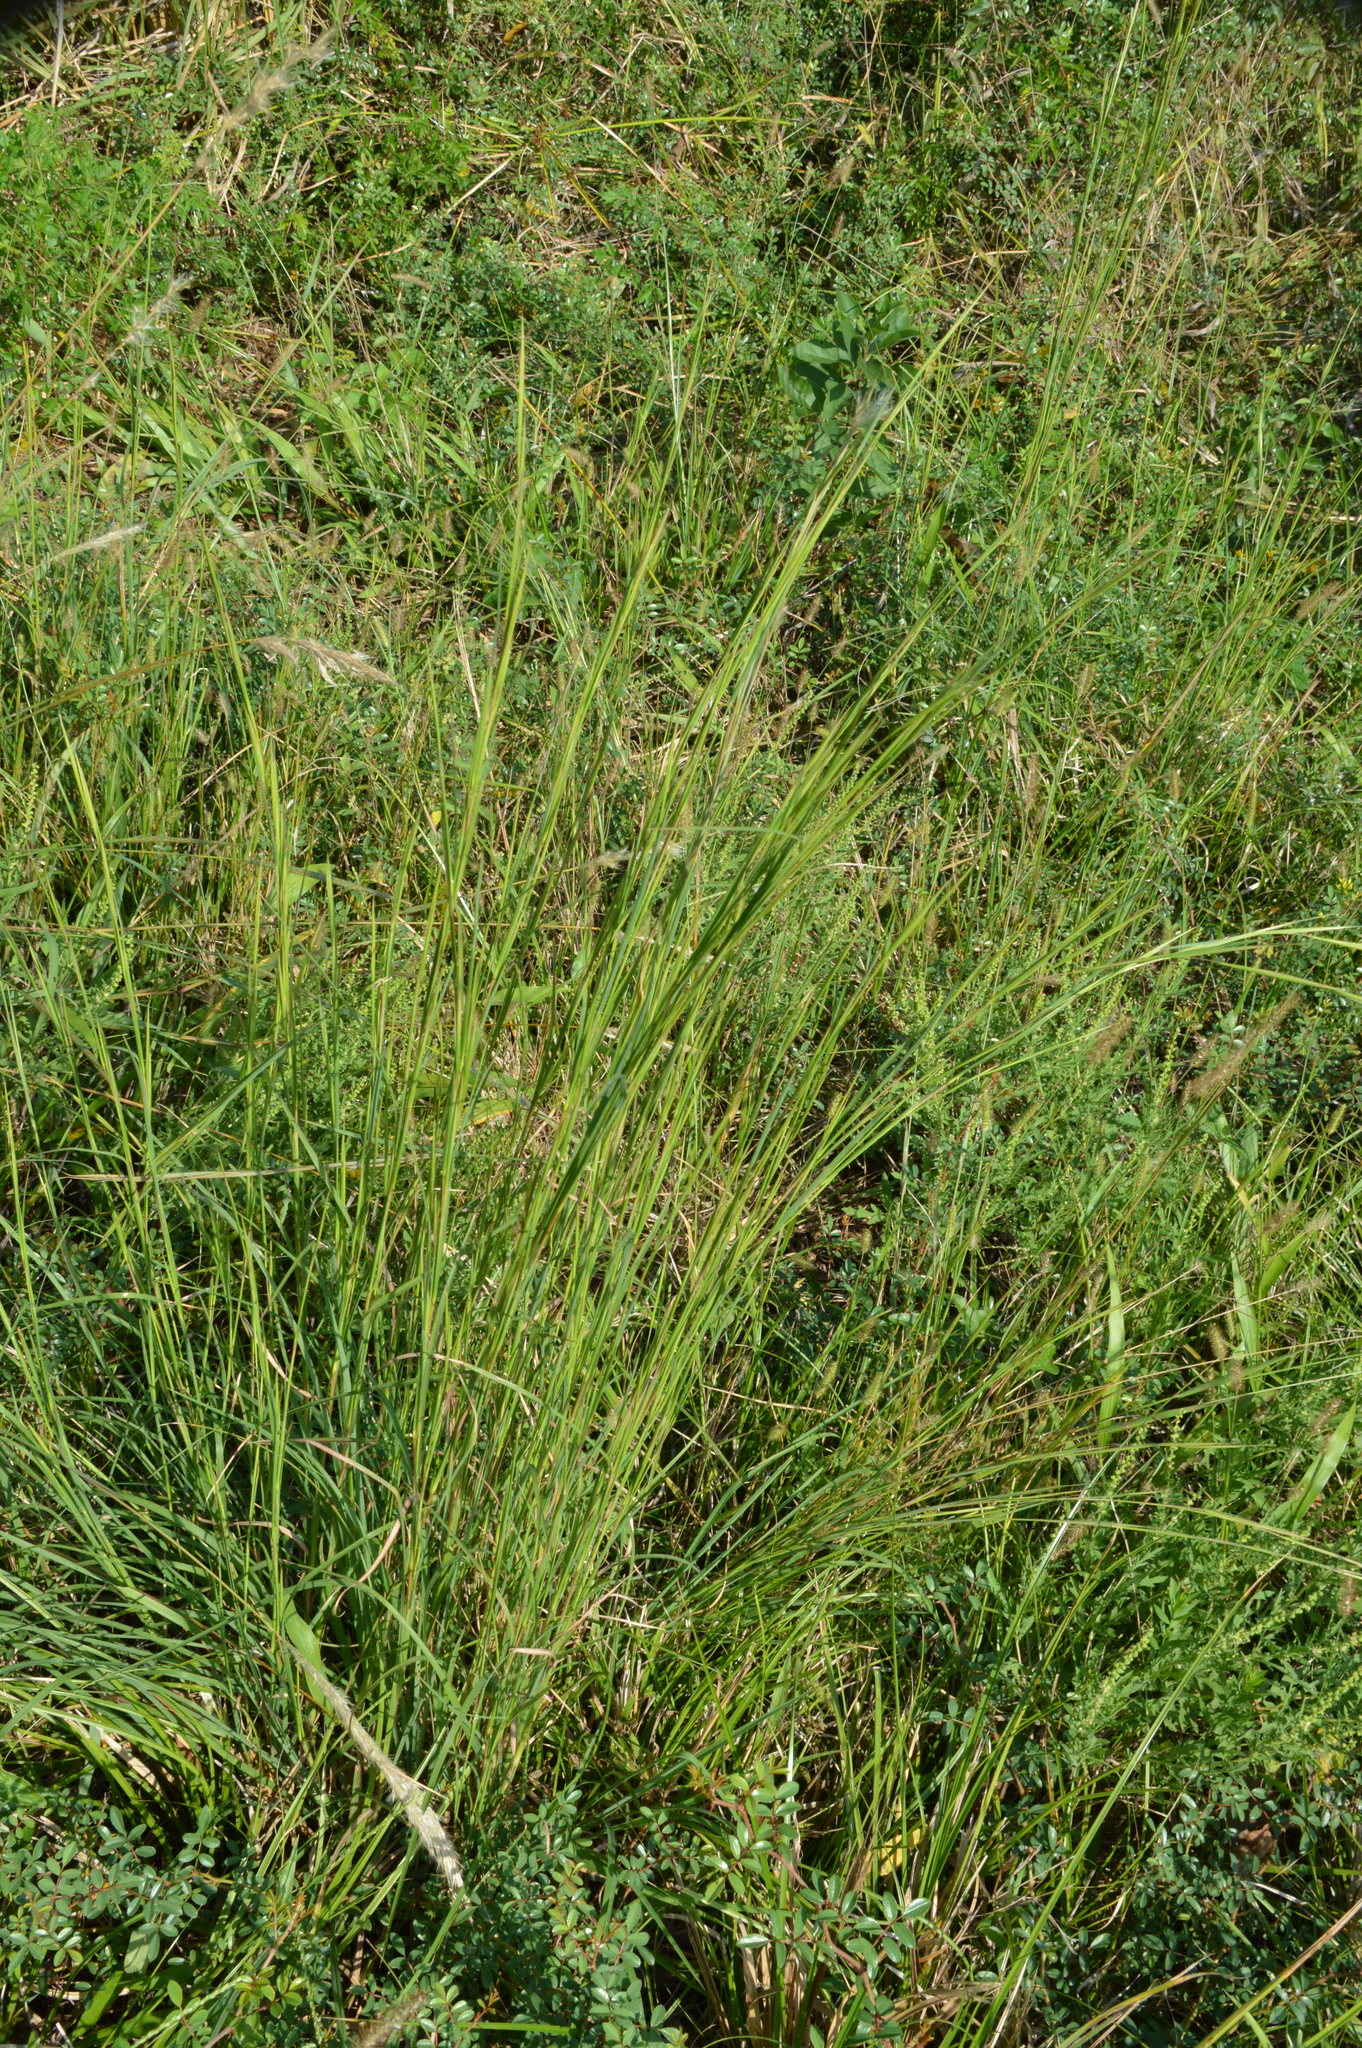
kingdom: Plantae
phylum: Tracheophyta
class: Liliopsida
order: Poales
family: Poaceae
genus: Andropogon
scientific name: Andropogon virginicus
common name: Broomsedge bluestem
